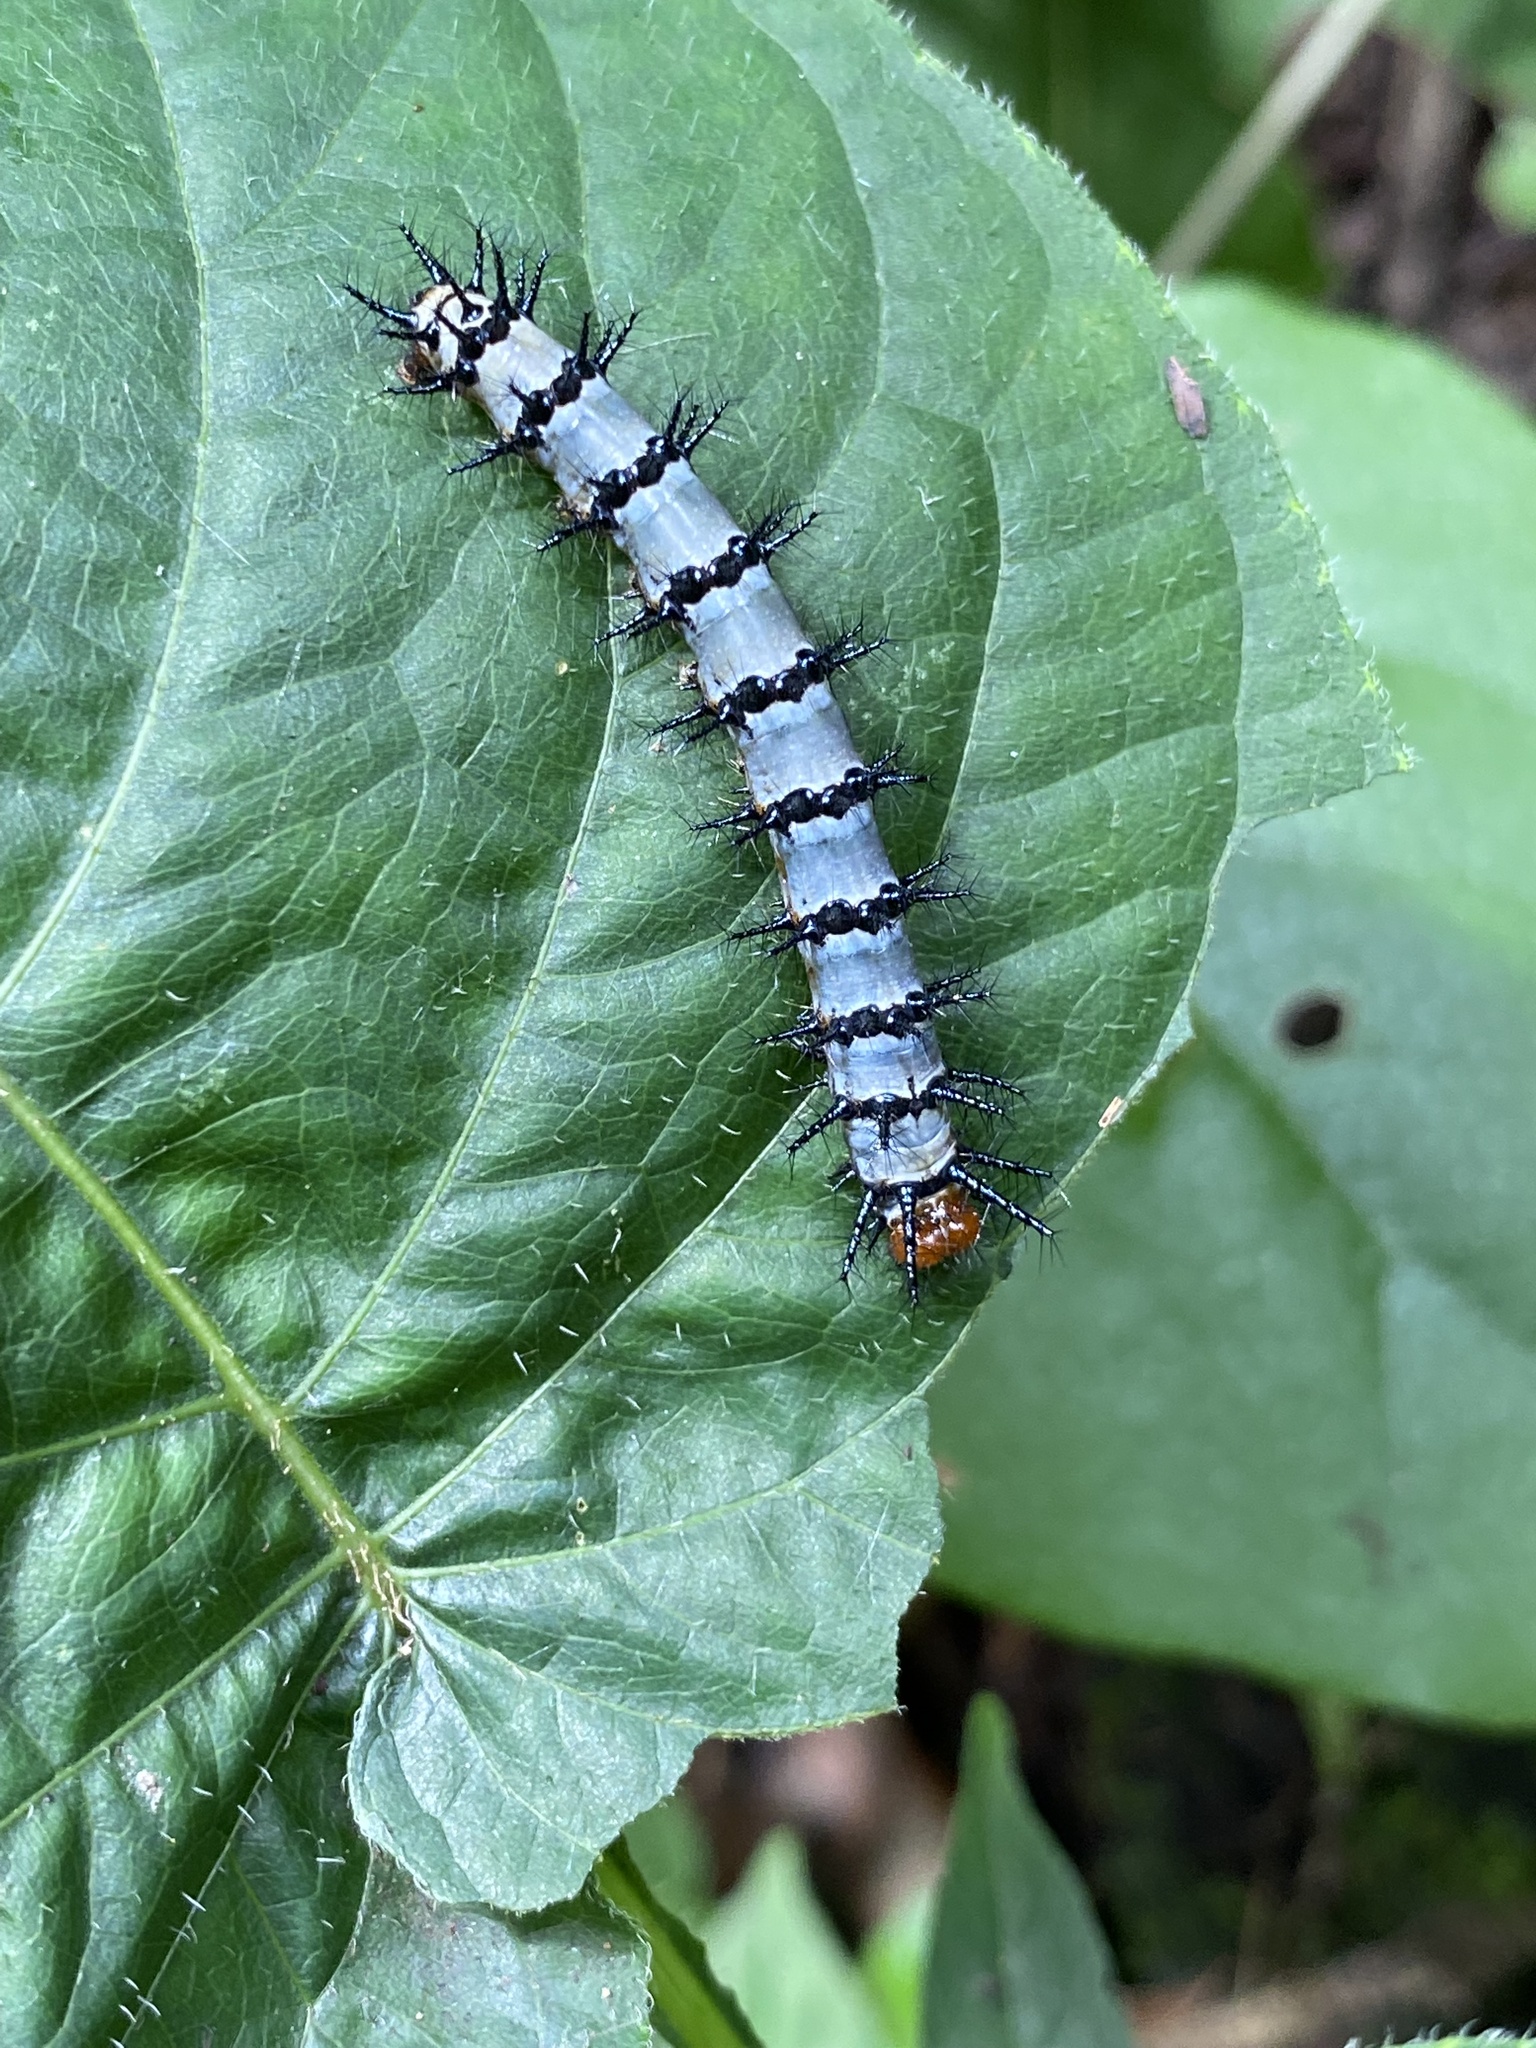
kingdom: Animalia
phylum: Arthropoda
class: Insecta
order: Lepidoptera
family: Nymphalidae
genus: Chlosyne
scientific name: Chlosyne janais
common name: Crimson patch
